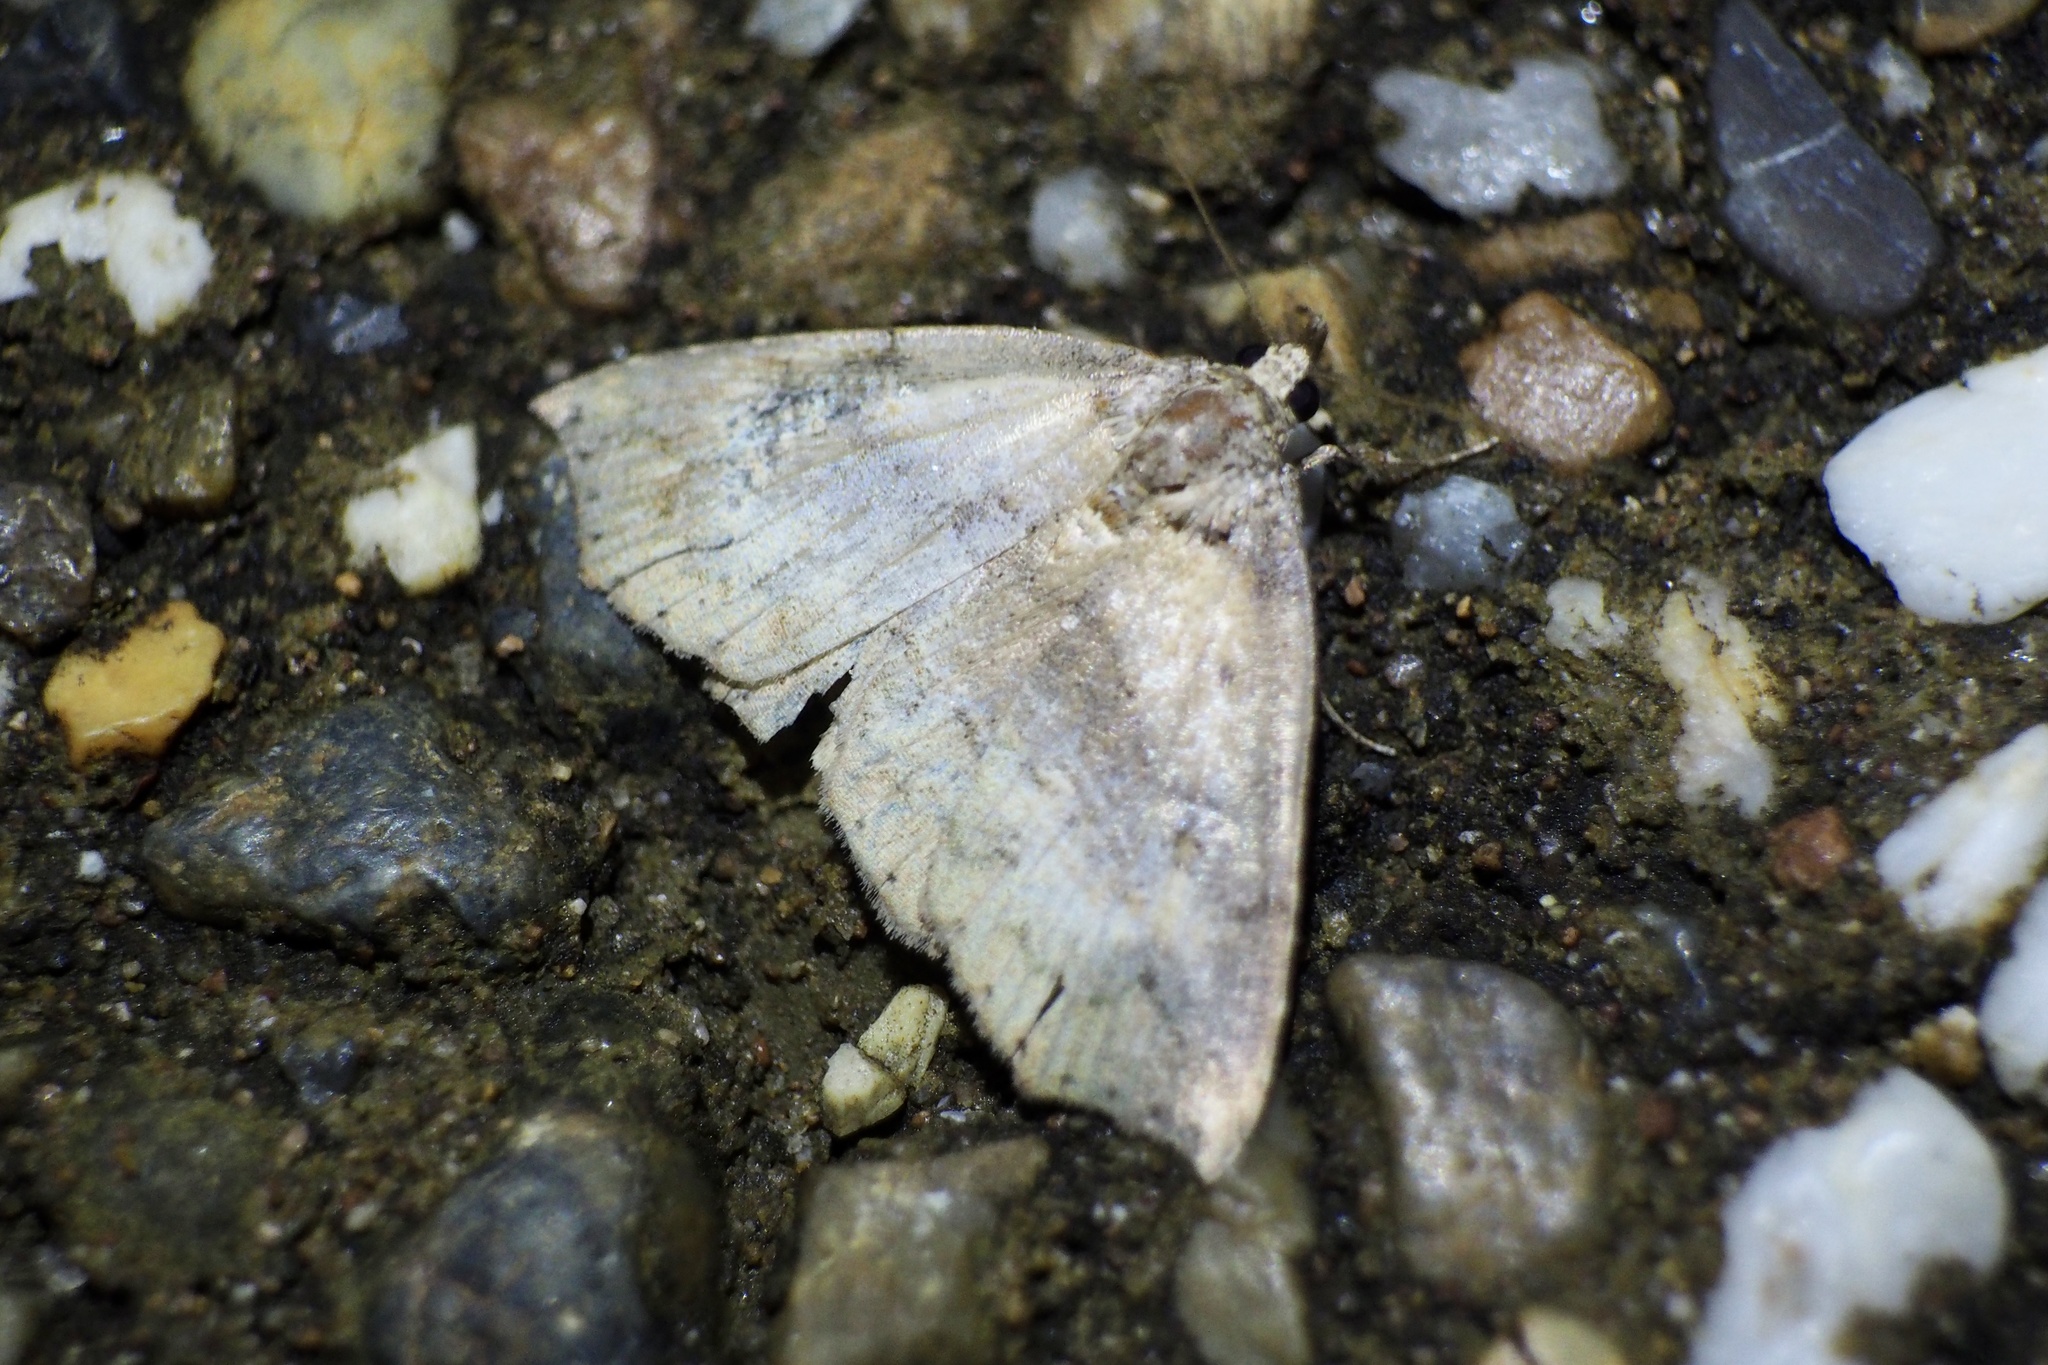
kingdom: Animalia
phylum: Arthropoda
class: Insecta
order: Lepidoptera
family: Erebidae
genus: Tamba
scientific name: Tamba corealis
